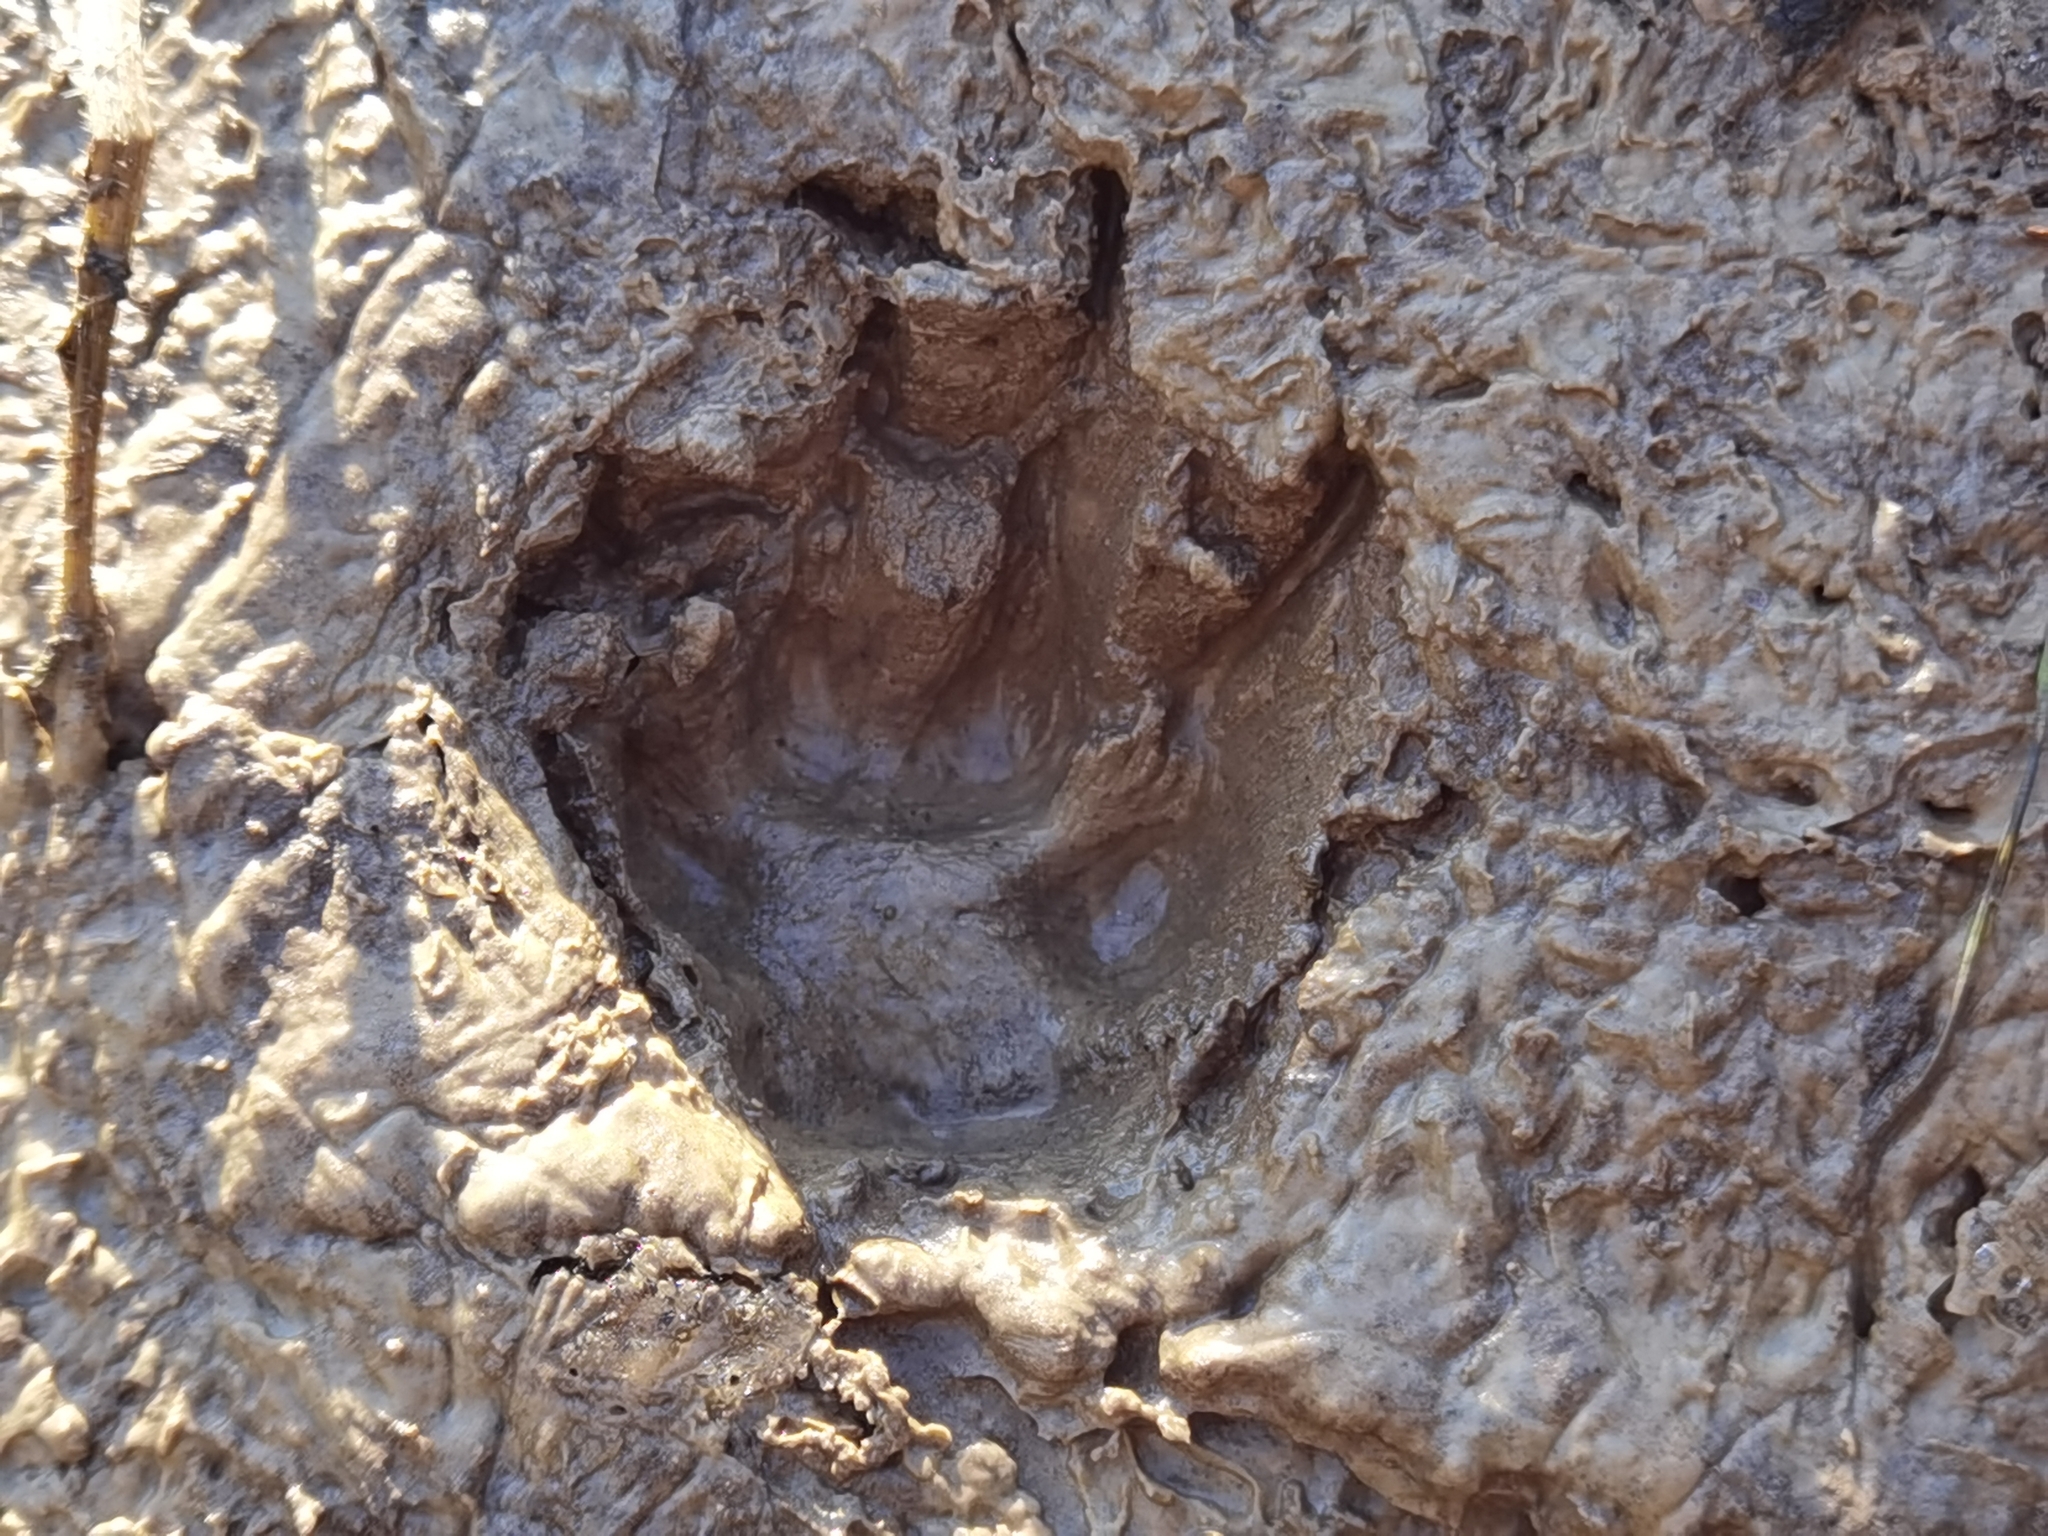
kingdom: Animalia
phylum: Chordata
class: Mammalia
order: Carnivora
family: Canidae
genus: Vulpes
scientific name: Vulpes vulpes
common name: Red fox
